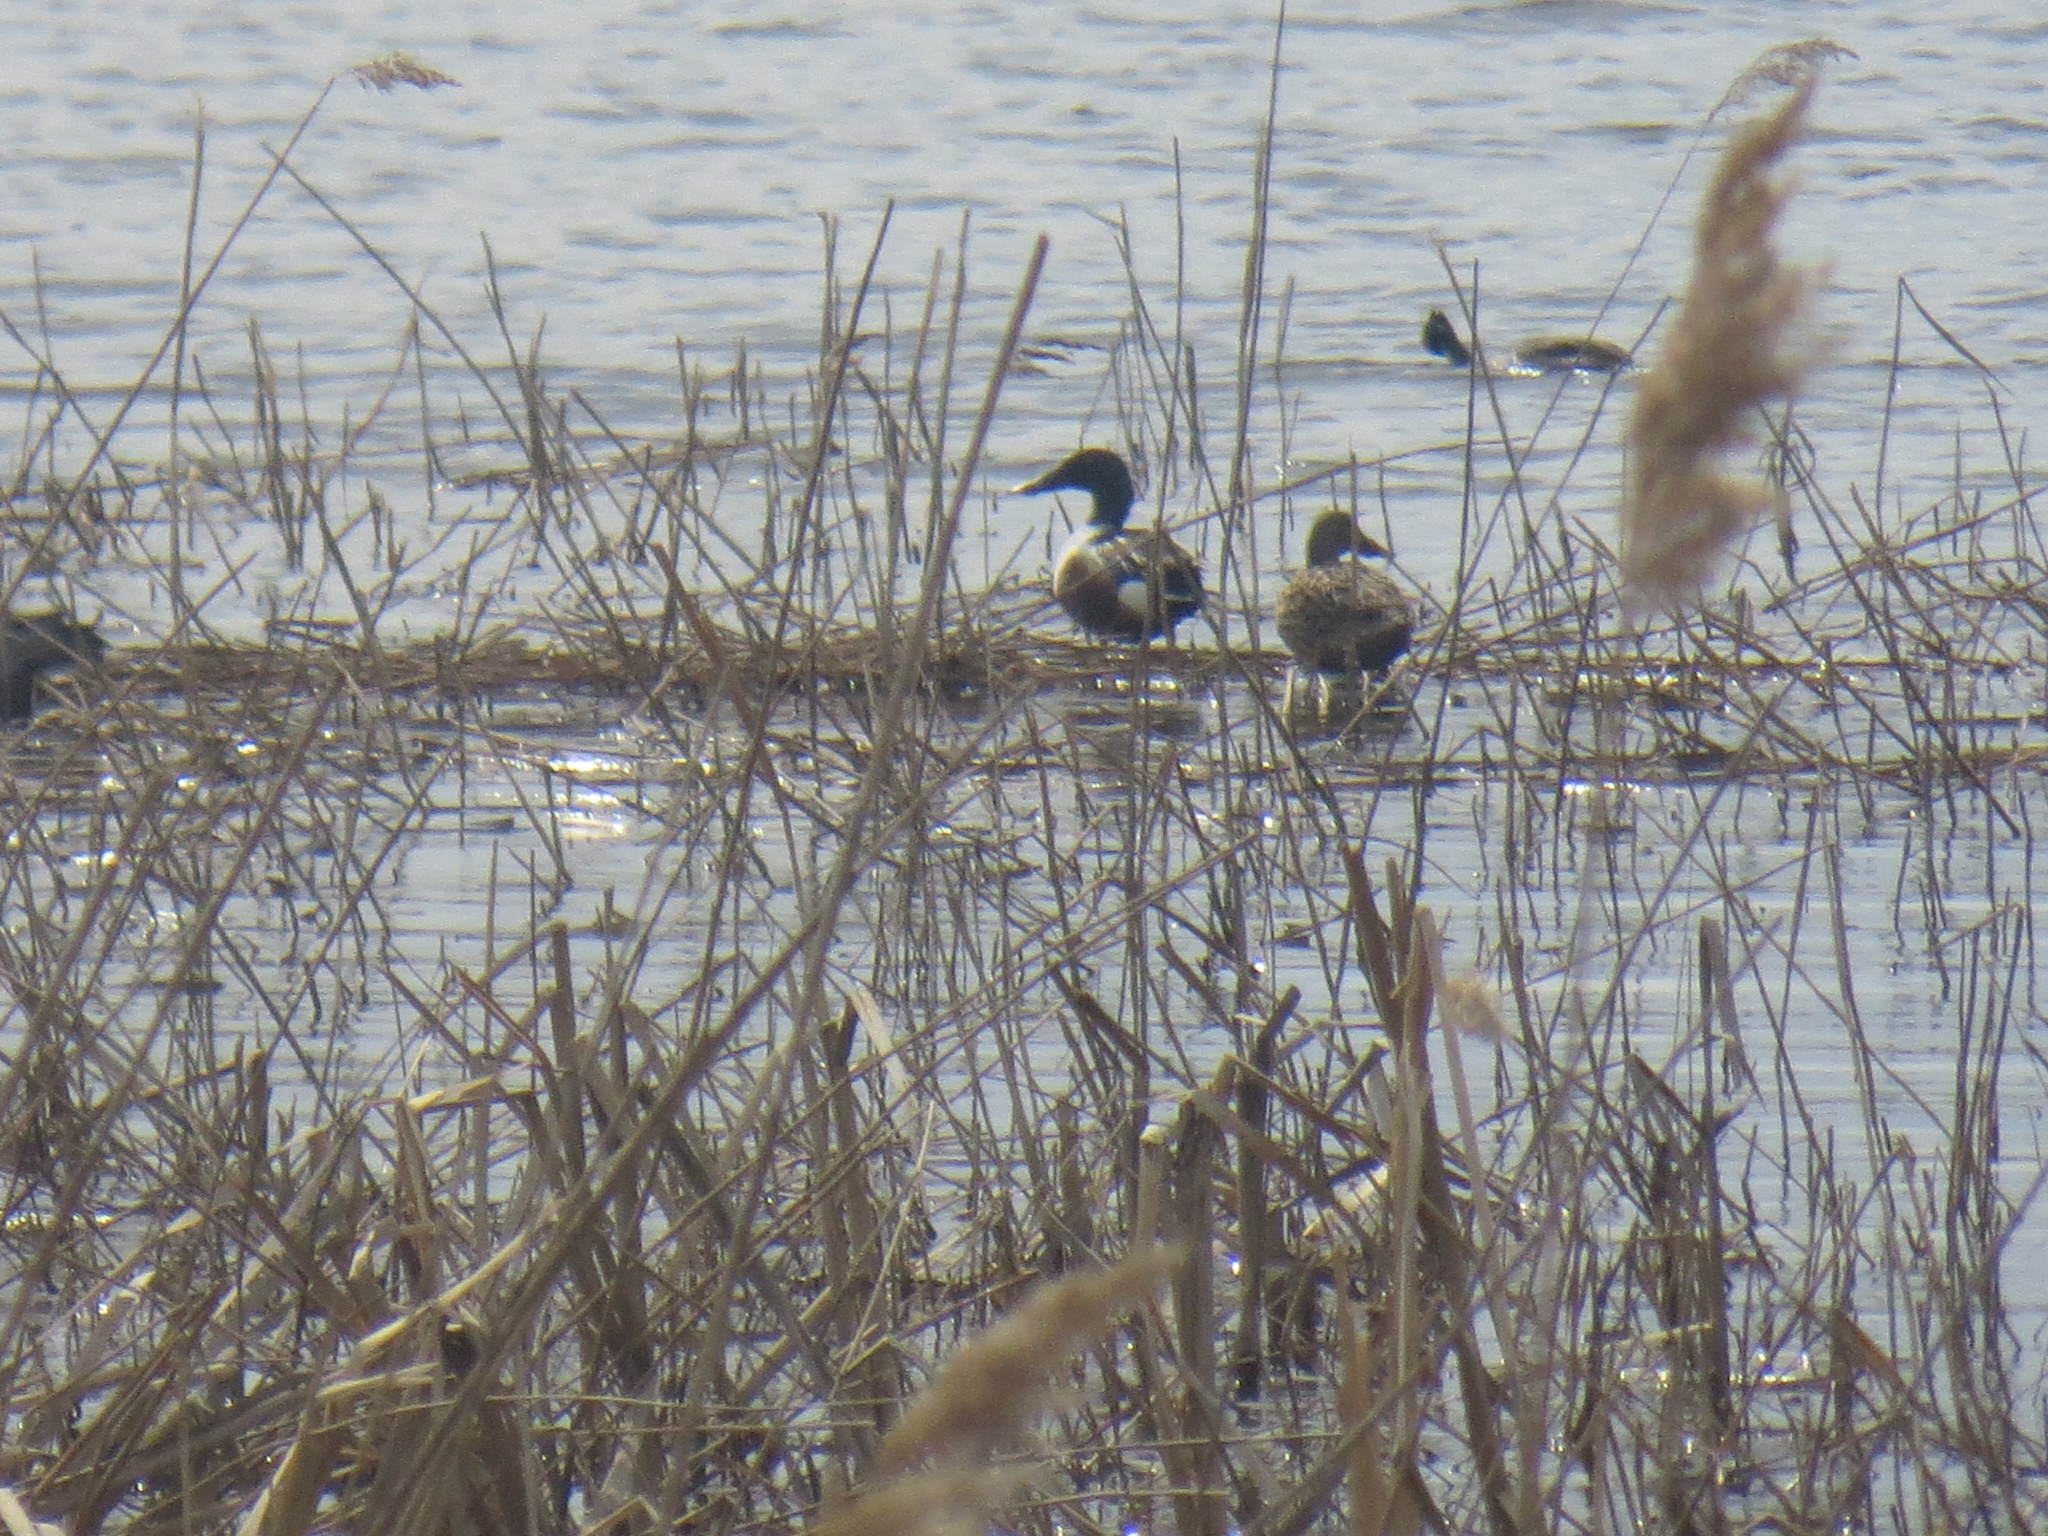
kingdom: Animalia
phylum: Chordata
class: Aves
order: Anseriformes
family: Anatidae
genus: Spatula
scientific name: Spatula clypeata
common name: Northern shoveler
